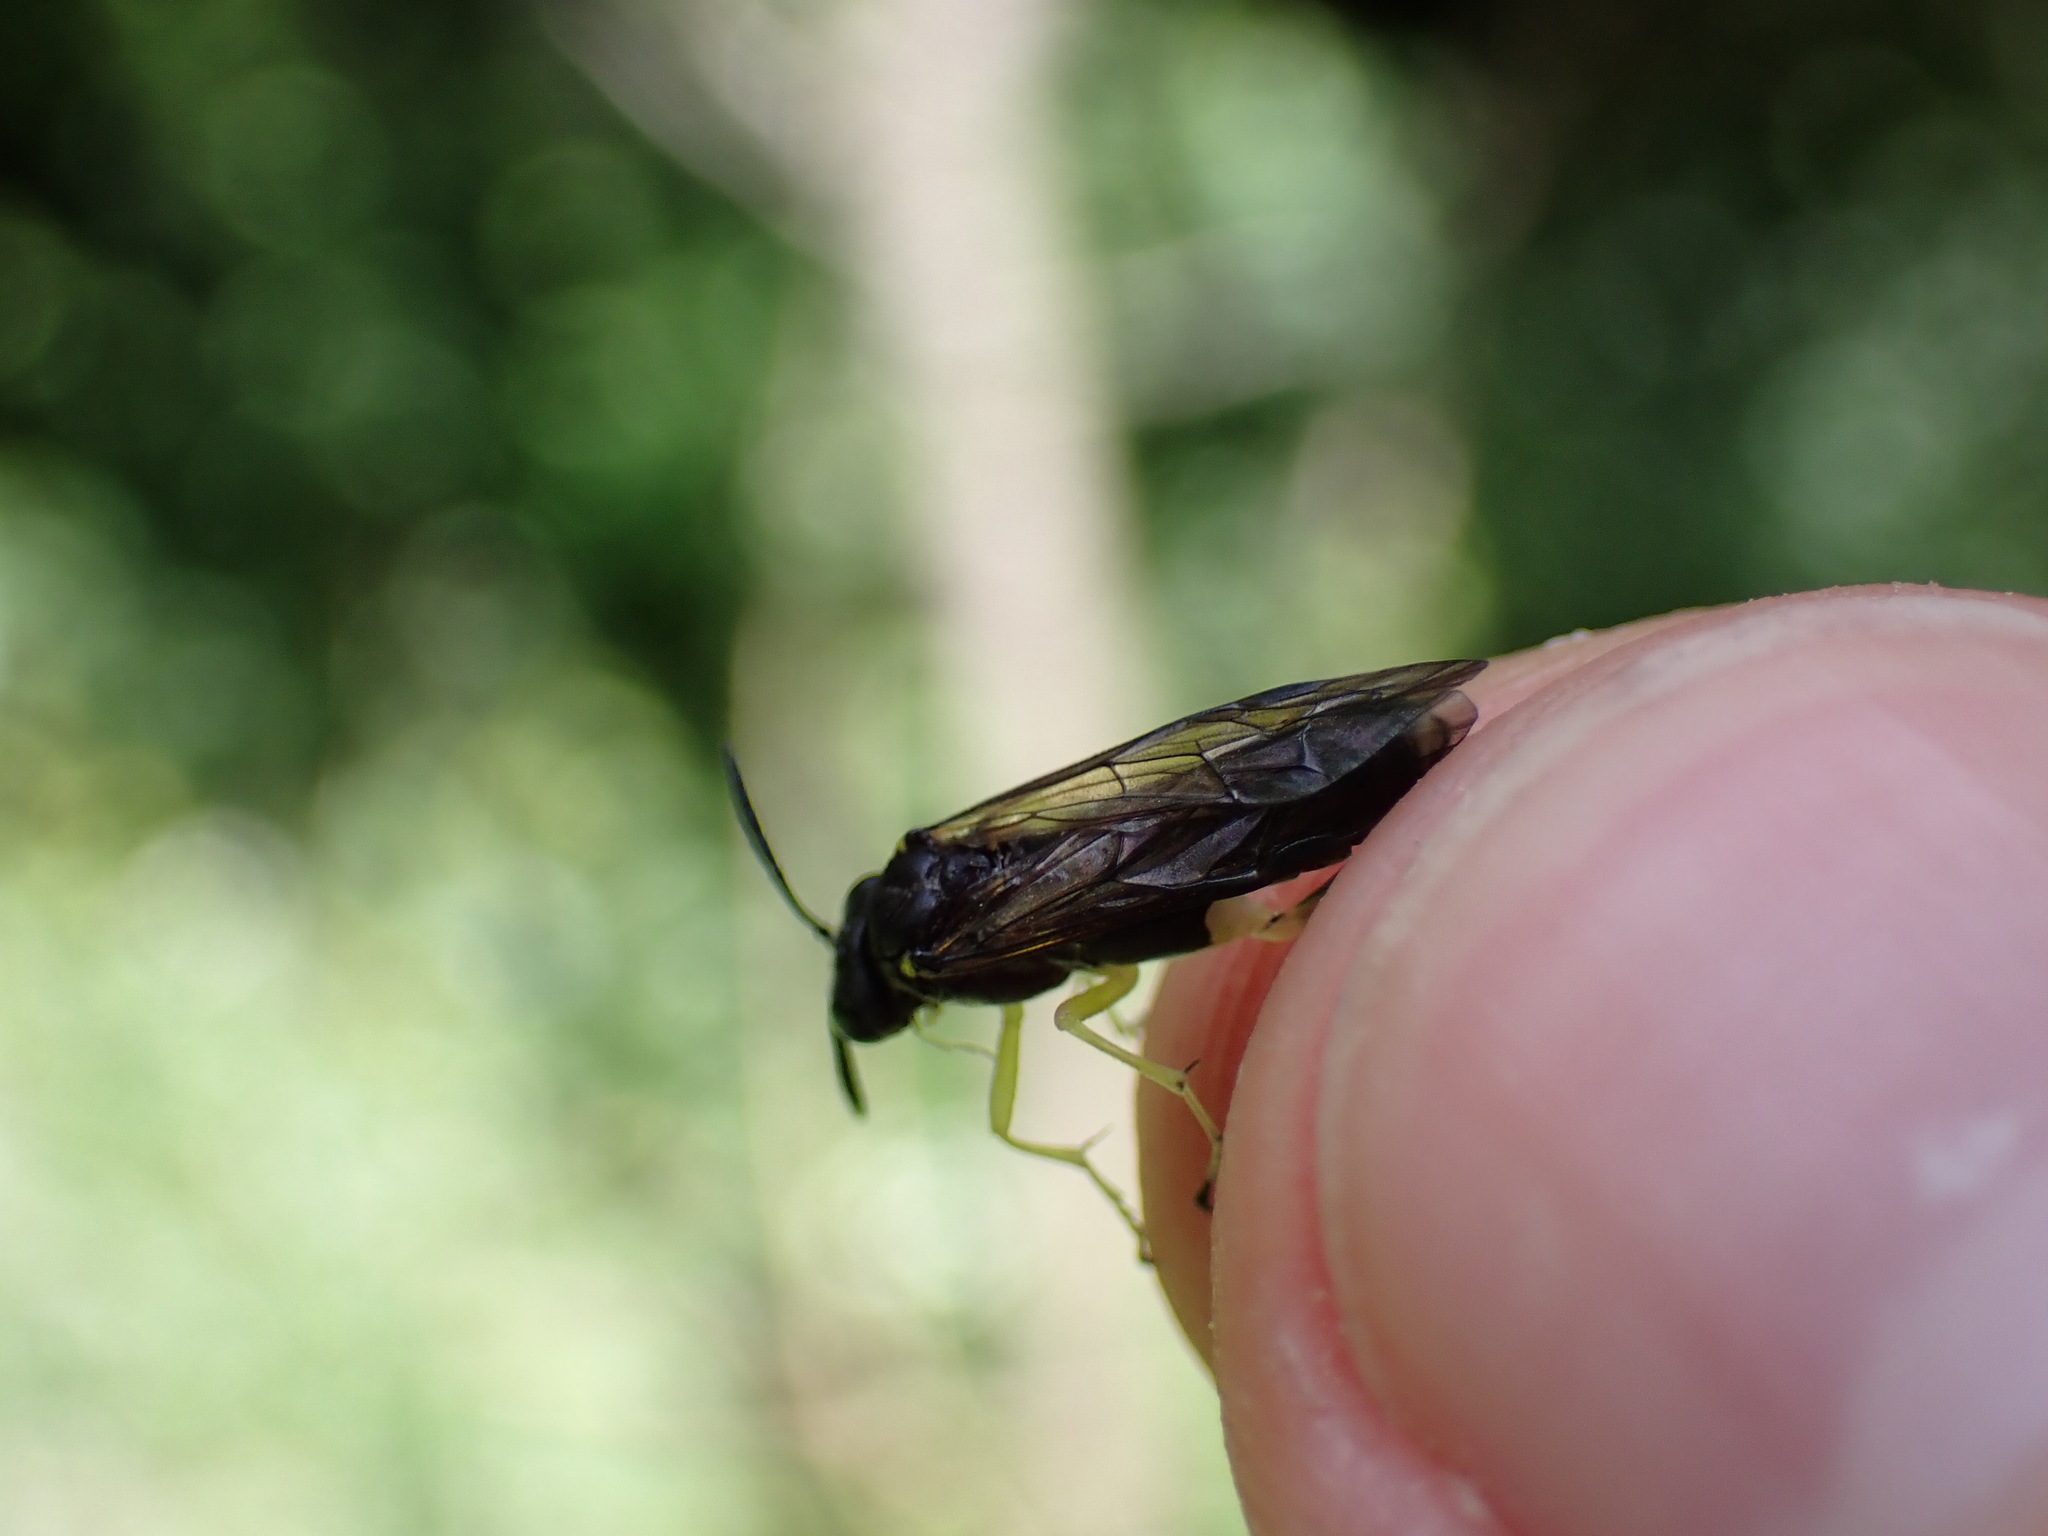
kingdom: Animalia
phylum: Arthropoda
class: Insecta
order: Hymenoptera
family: Tenthredinidae
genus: Macrophya
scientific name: Macrophya montana
